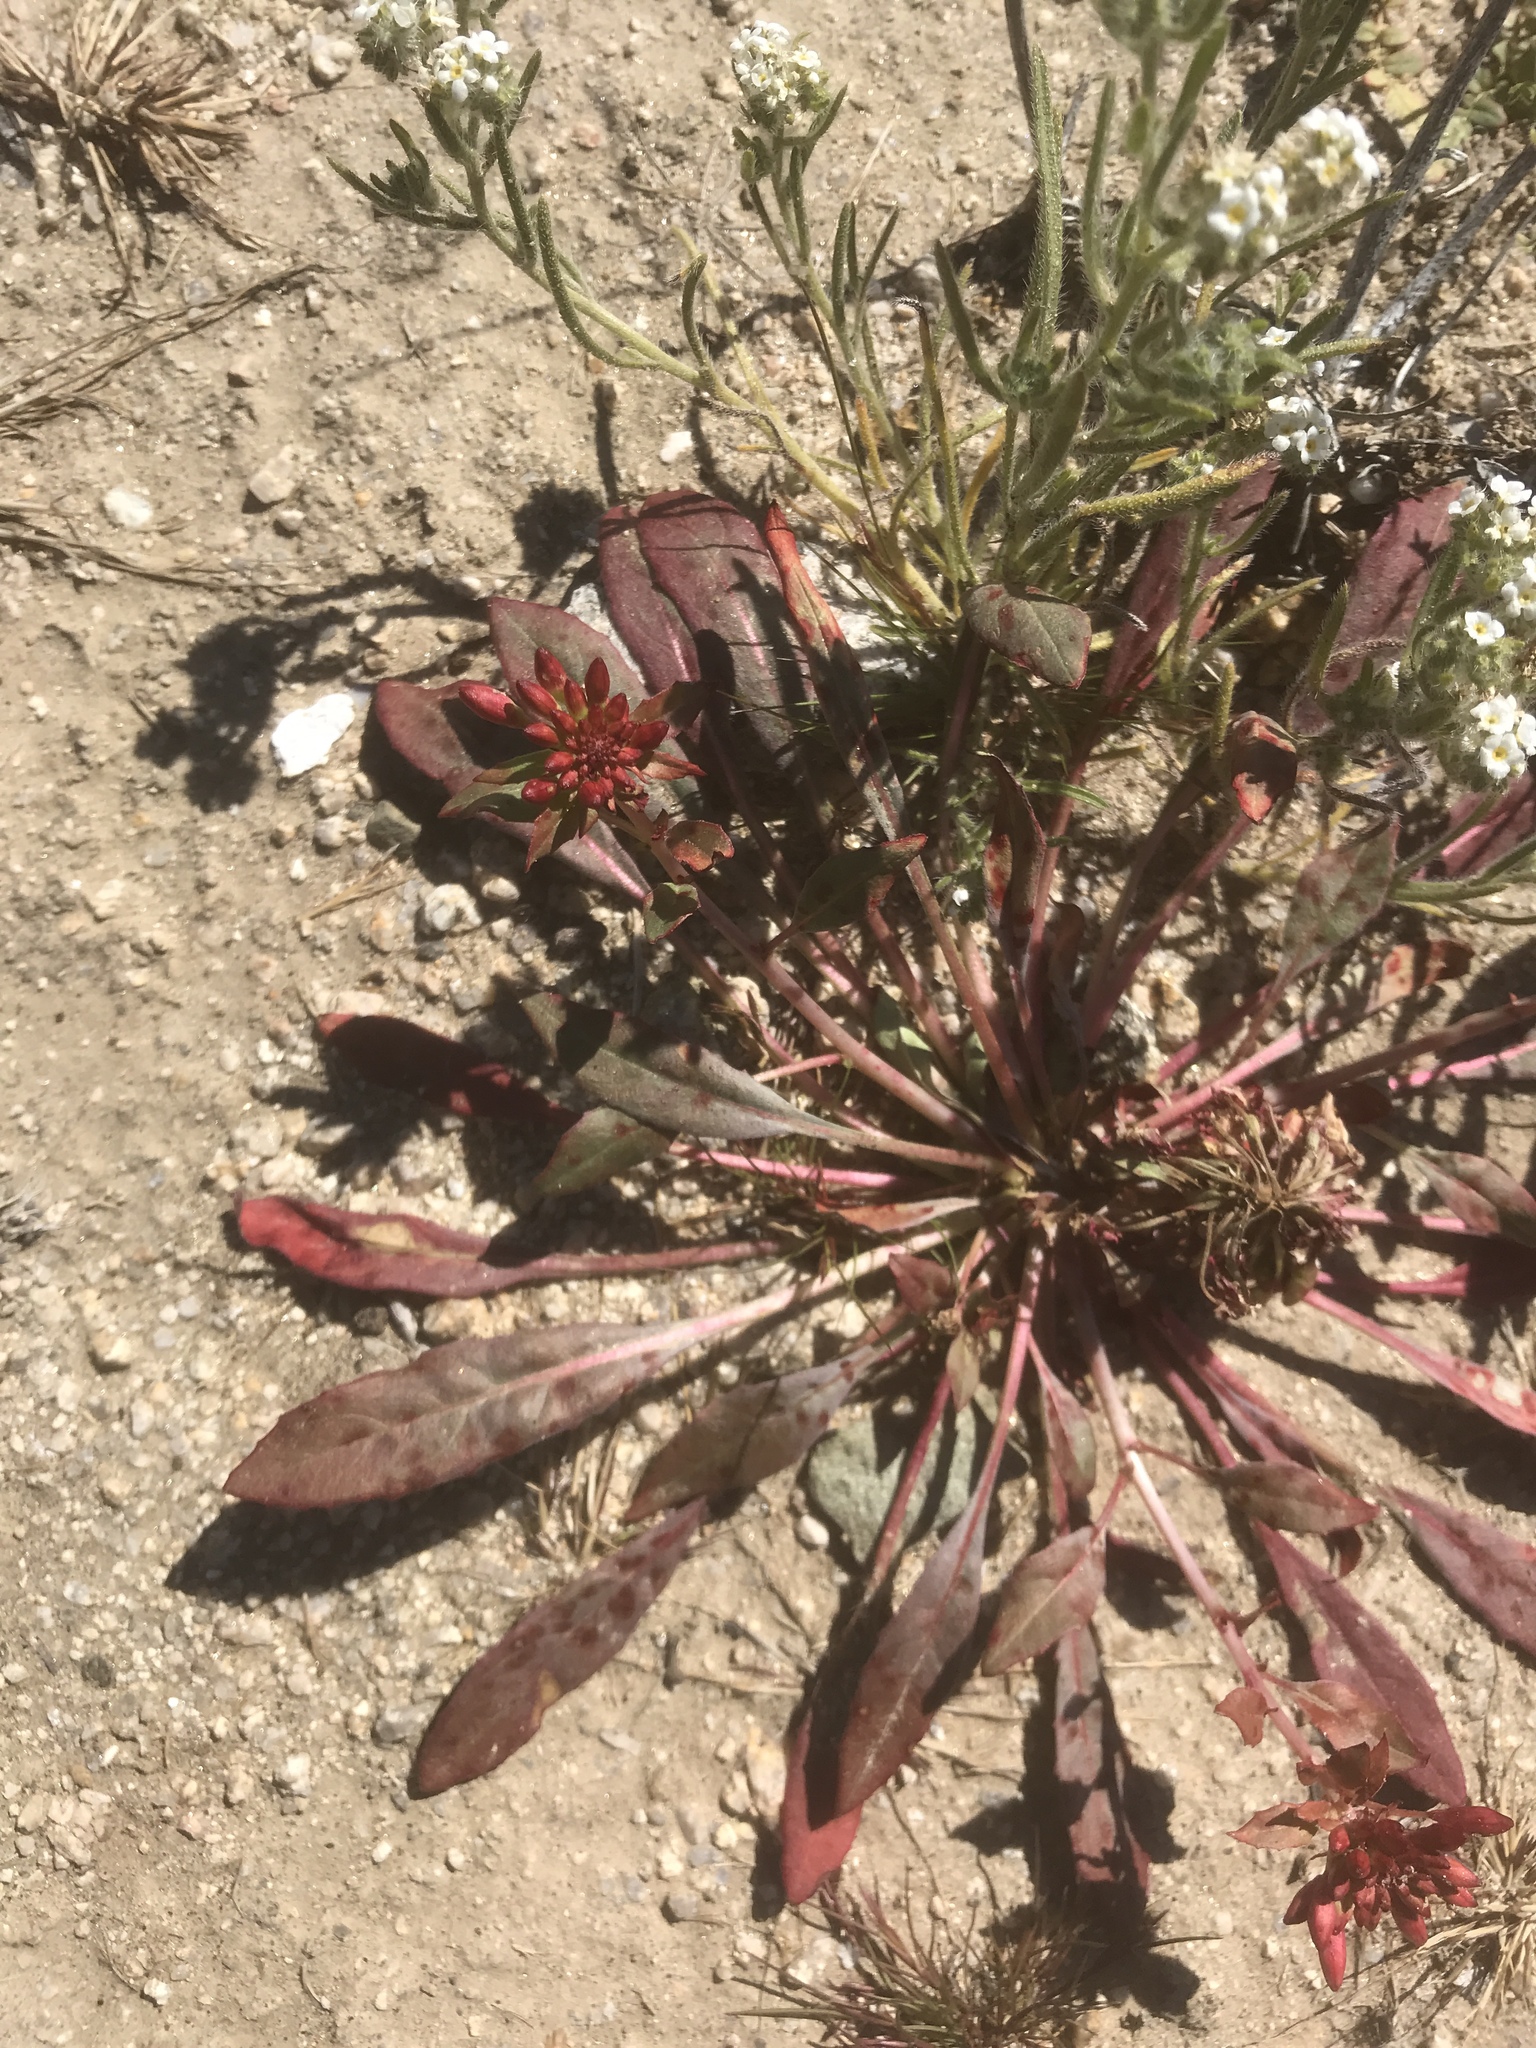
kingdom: Plantae
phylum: Tracheophyta
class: Magnoliopsida
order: Myrtales
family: Onagraceae
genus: Eremothera
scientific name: Eremothera boothii
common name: Booth's evening primrose
